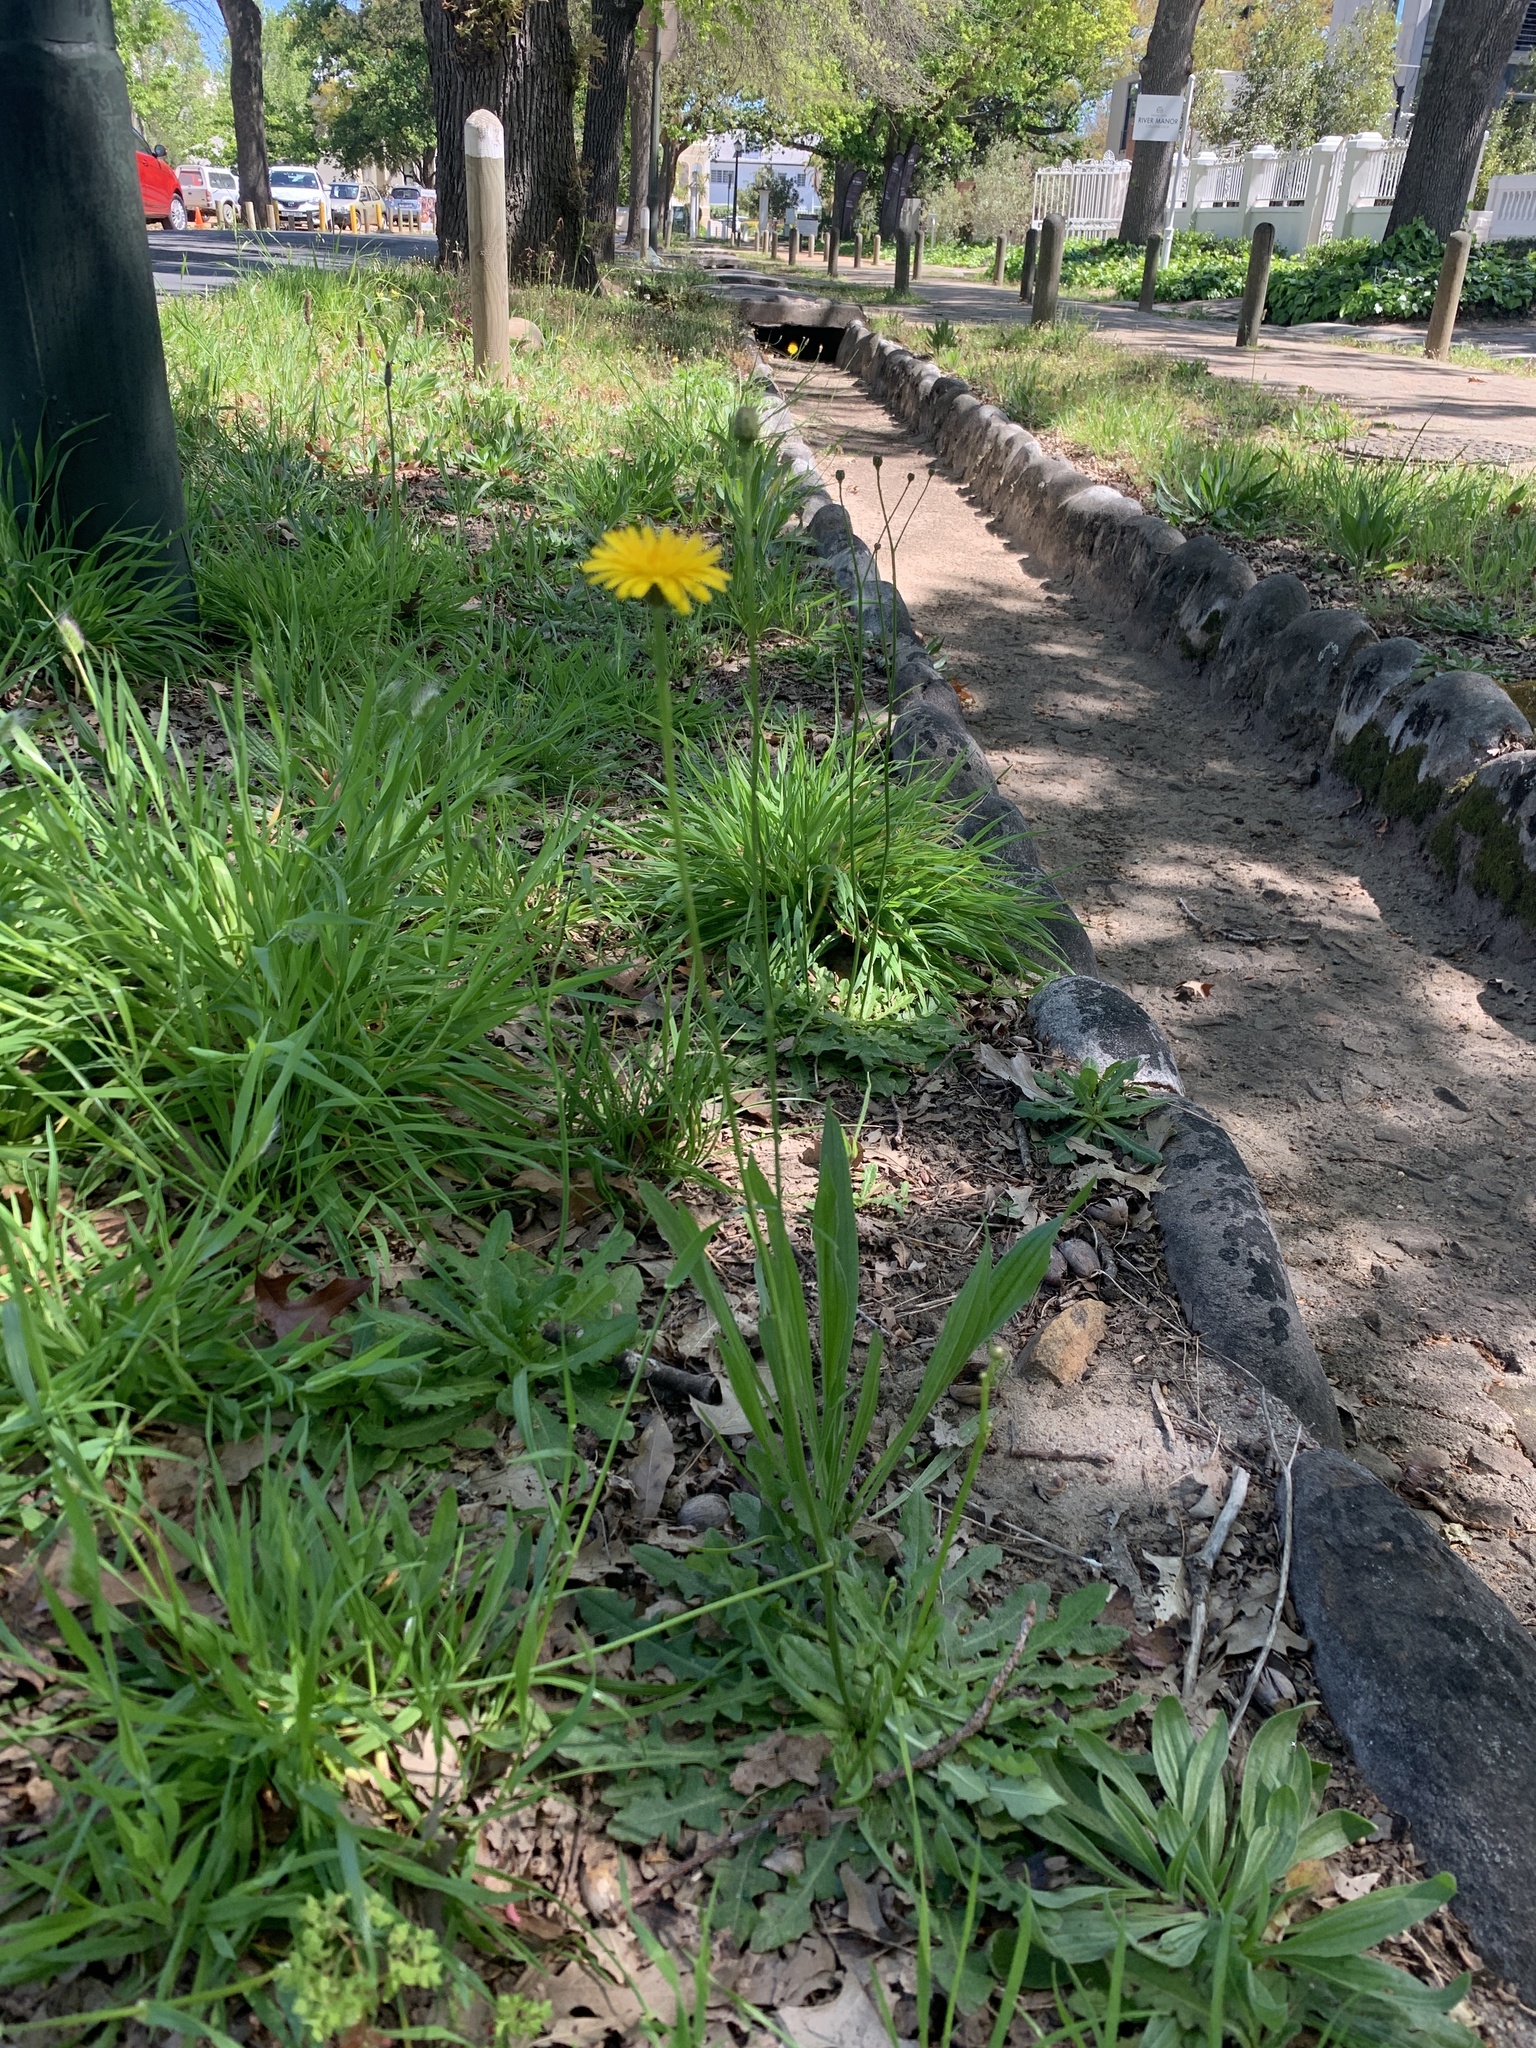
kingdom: Plantae
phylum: Tracheophyta
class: Magnoliopsida
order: Asterales
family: Asteraceae
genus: Hypochaeris
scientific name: Hypochaeris radicata
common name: Flatweed
